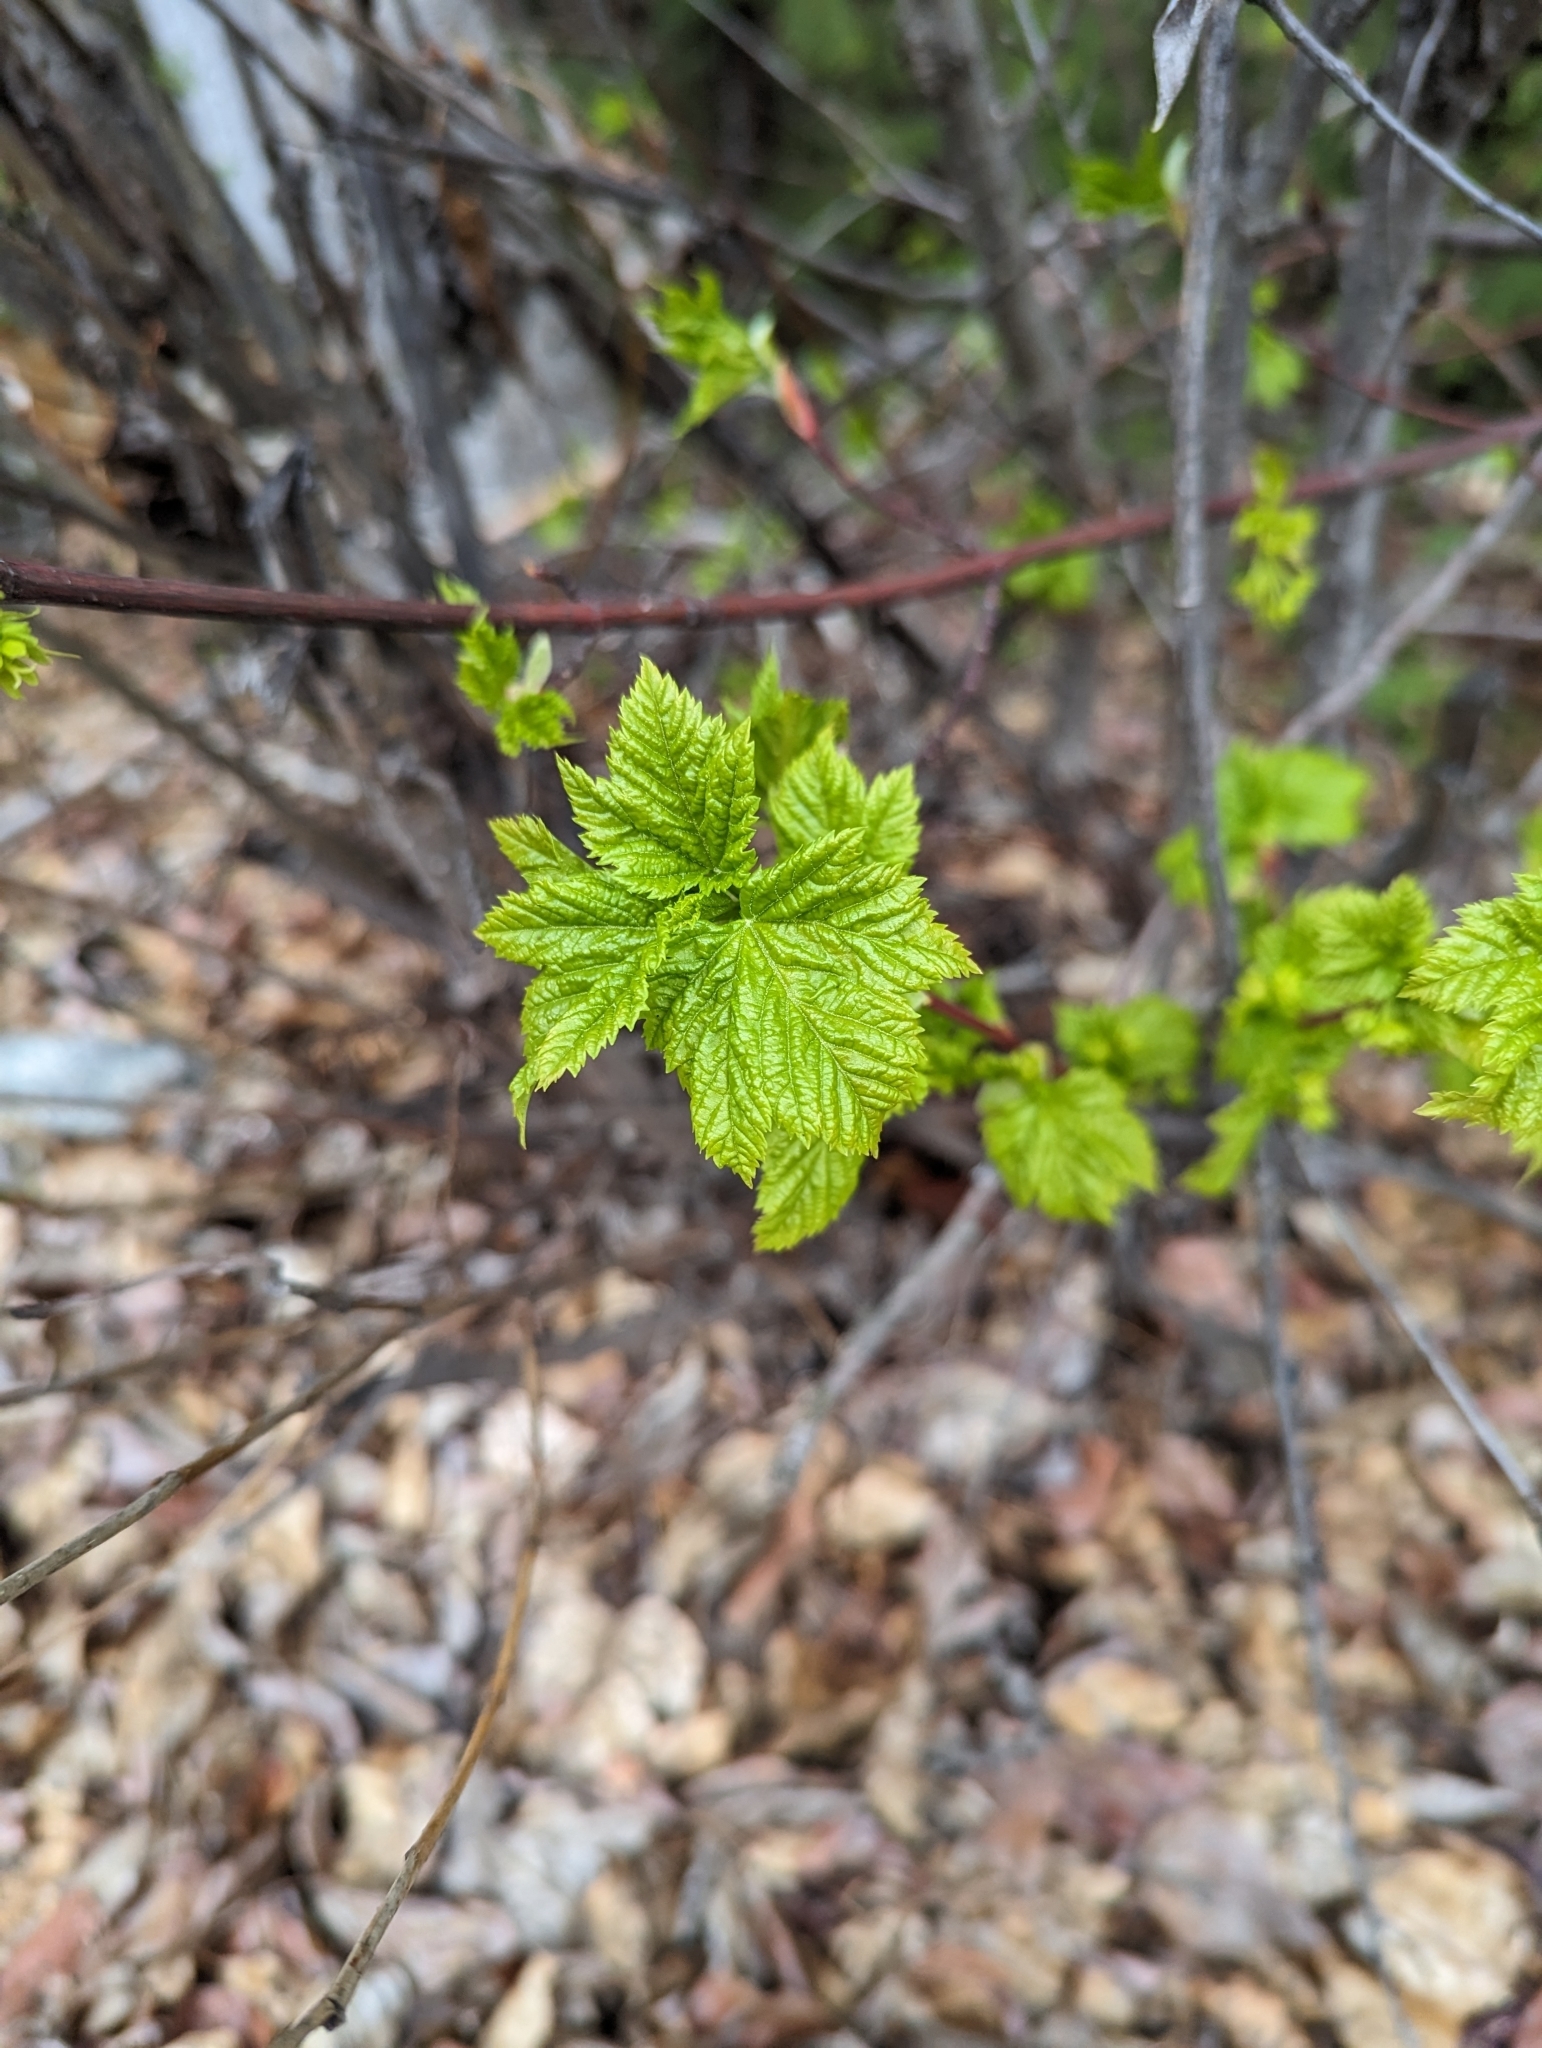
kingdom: Plantae
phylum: Tracheophyta
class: Magnoliopsida
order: Sapindales
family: Sapindaceae
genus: Acer
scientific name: Acer glabrum
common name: Rocky mountain maple
